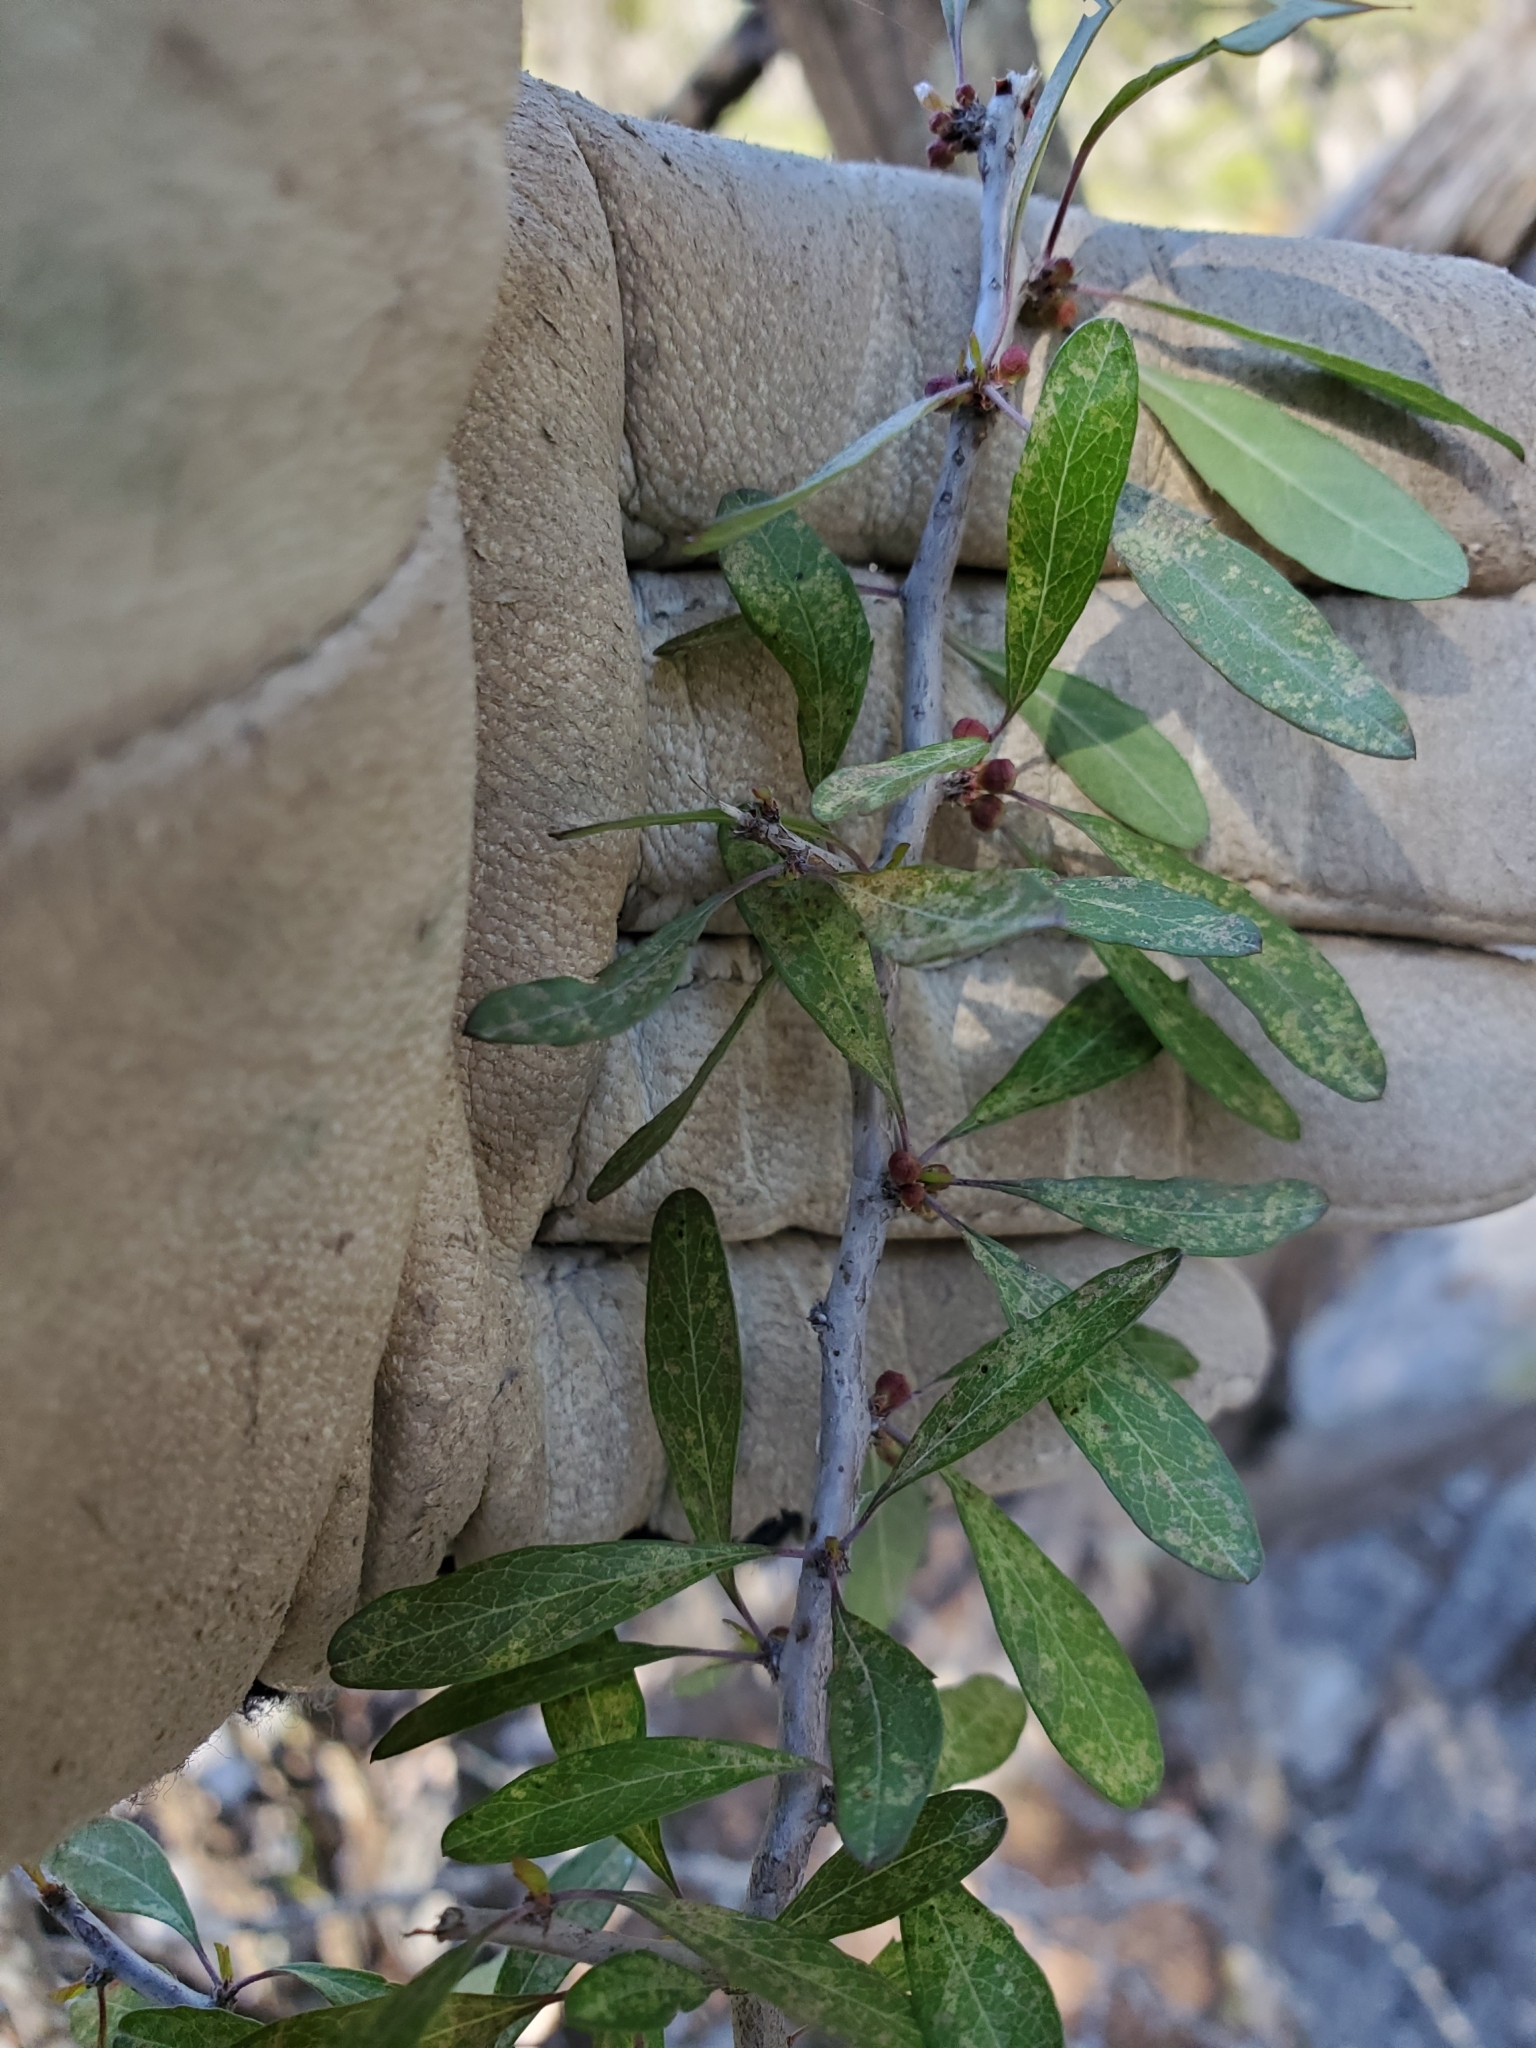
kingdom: Plantae
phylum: Tracheophyta
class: Magnoliopsida
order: Ericales
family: Sapotaceae
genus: Sideroxylon
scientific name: Sideroxylon lanuginosum
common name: Chittamwood
